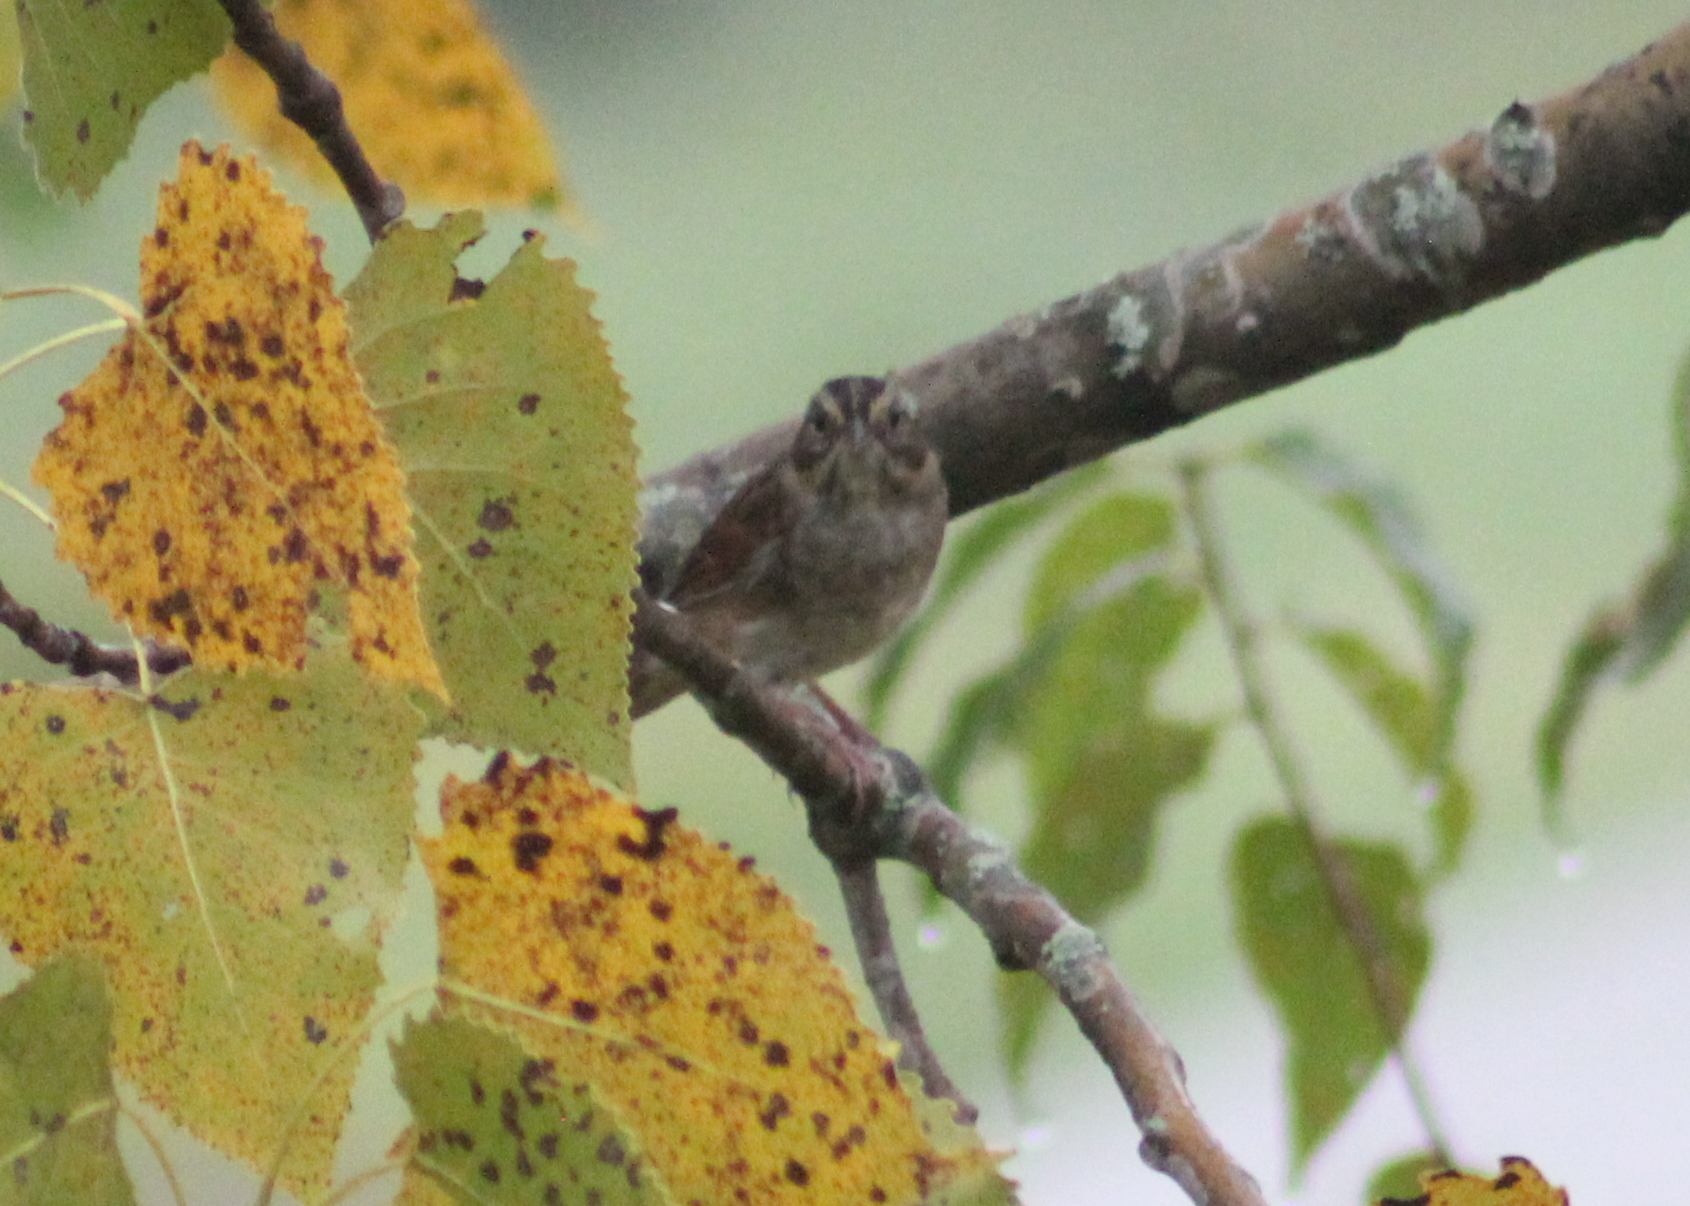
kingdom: Animalia
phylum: Chordata
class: Aves
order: Passeriformes
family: Passerellidae
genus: Melospiza
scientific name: Melospiza georgiana
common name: Swamp sparrow
